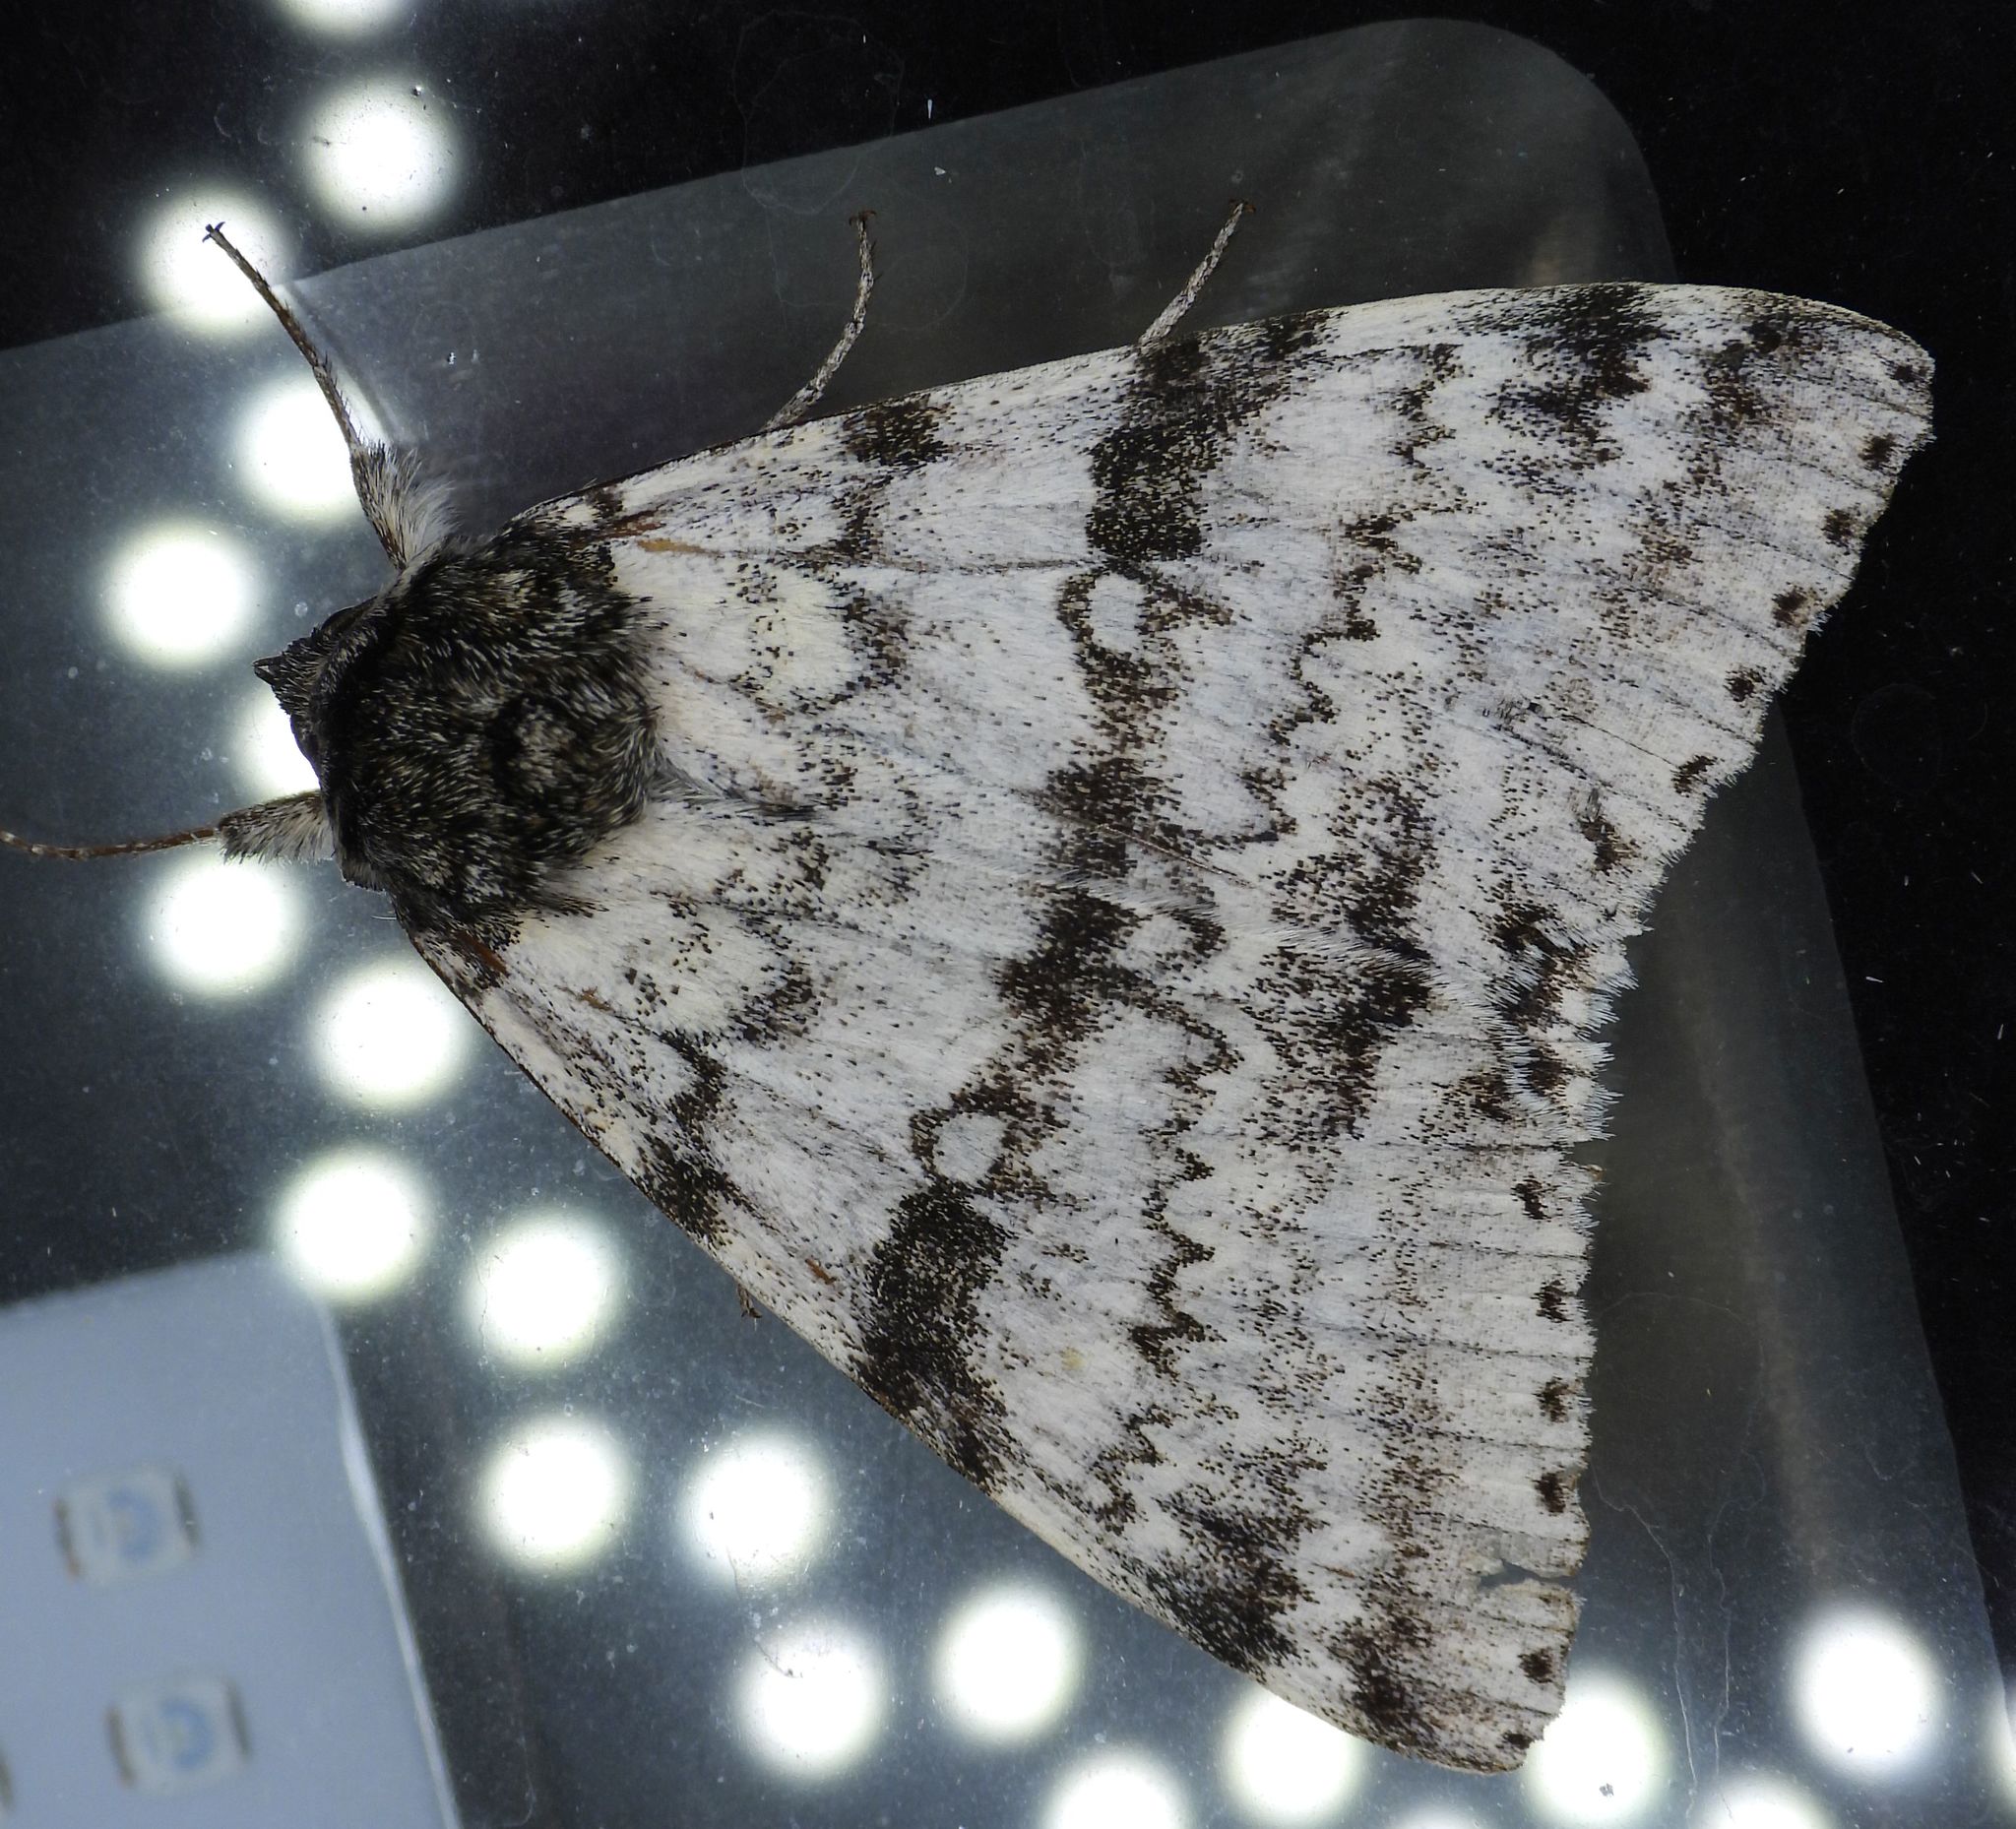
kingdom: Animalia
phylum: Arthropoda
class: Insecta
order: Lepidoptera
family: Erebidae
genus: Catocala
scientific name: Catocala relicta
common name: White underwing
